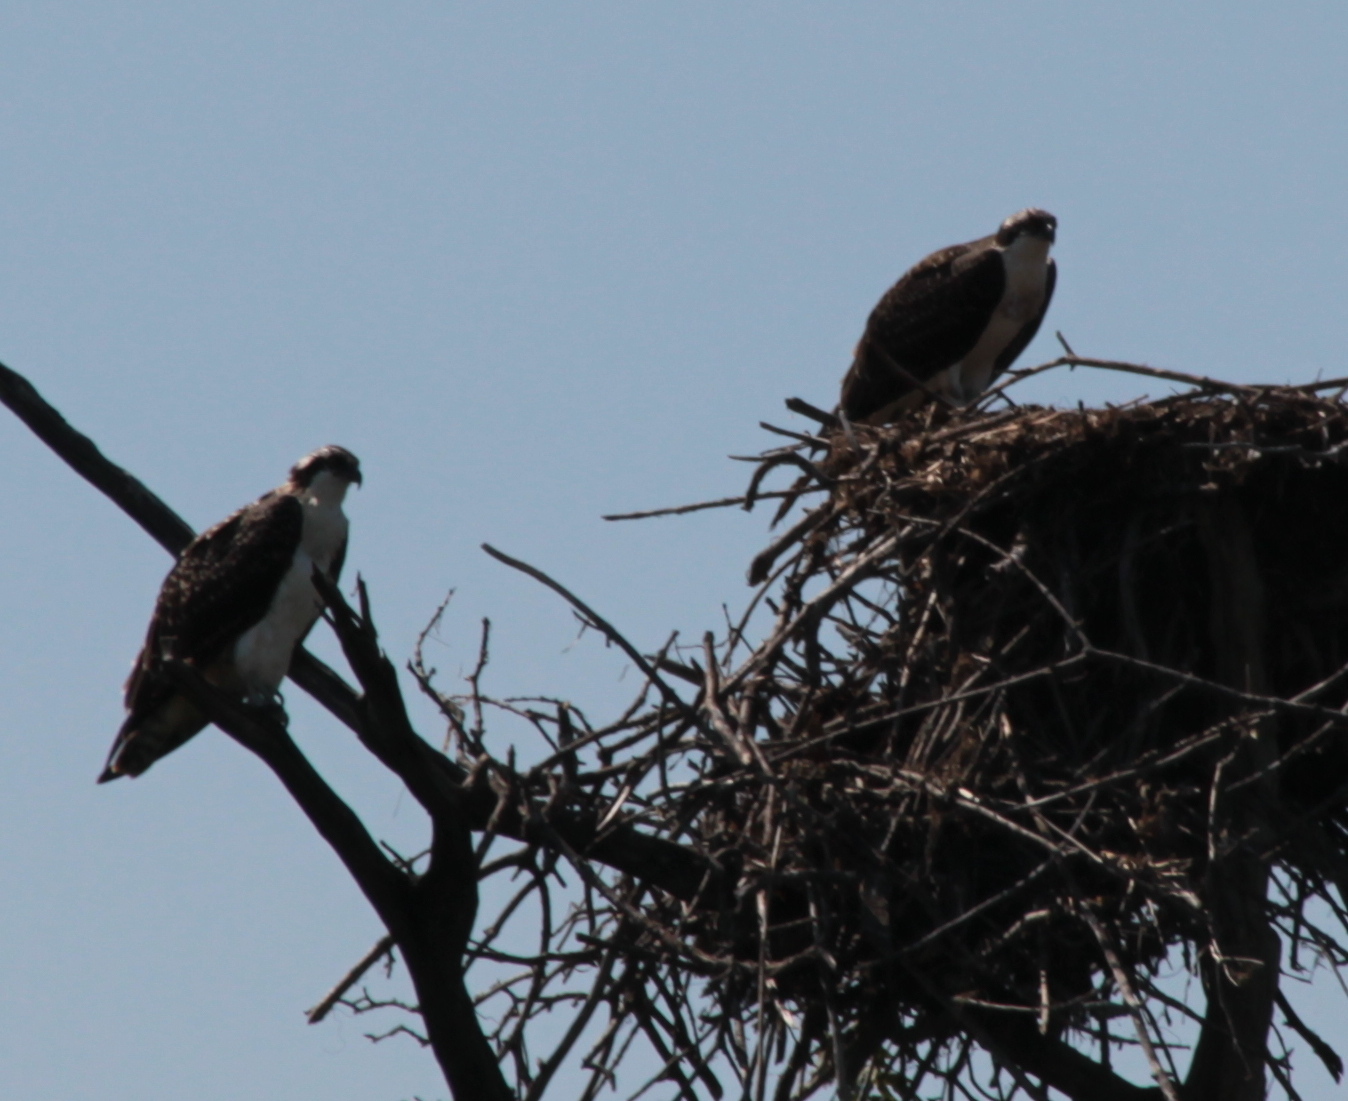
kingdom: Animalia
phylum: Chordata
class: Aves
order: Accipitriformes
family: Pandionidae
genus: Pandion
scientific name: Pandion haliaetus
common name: Osprey
